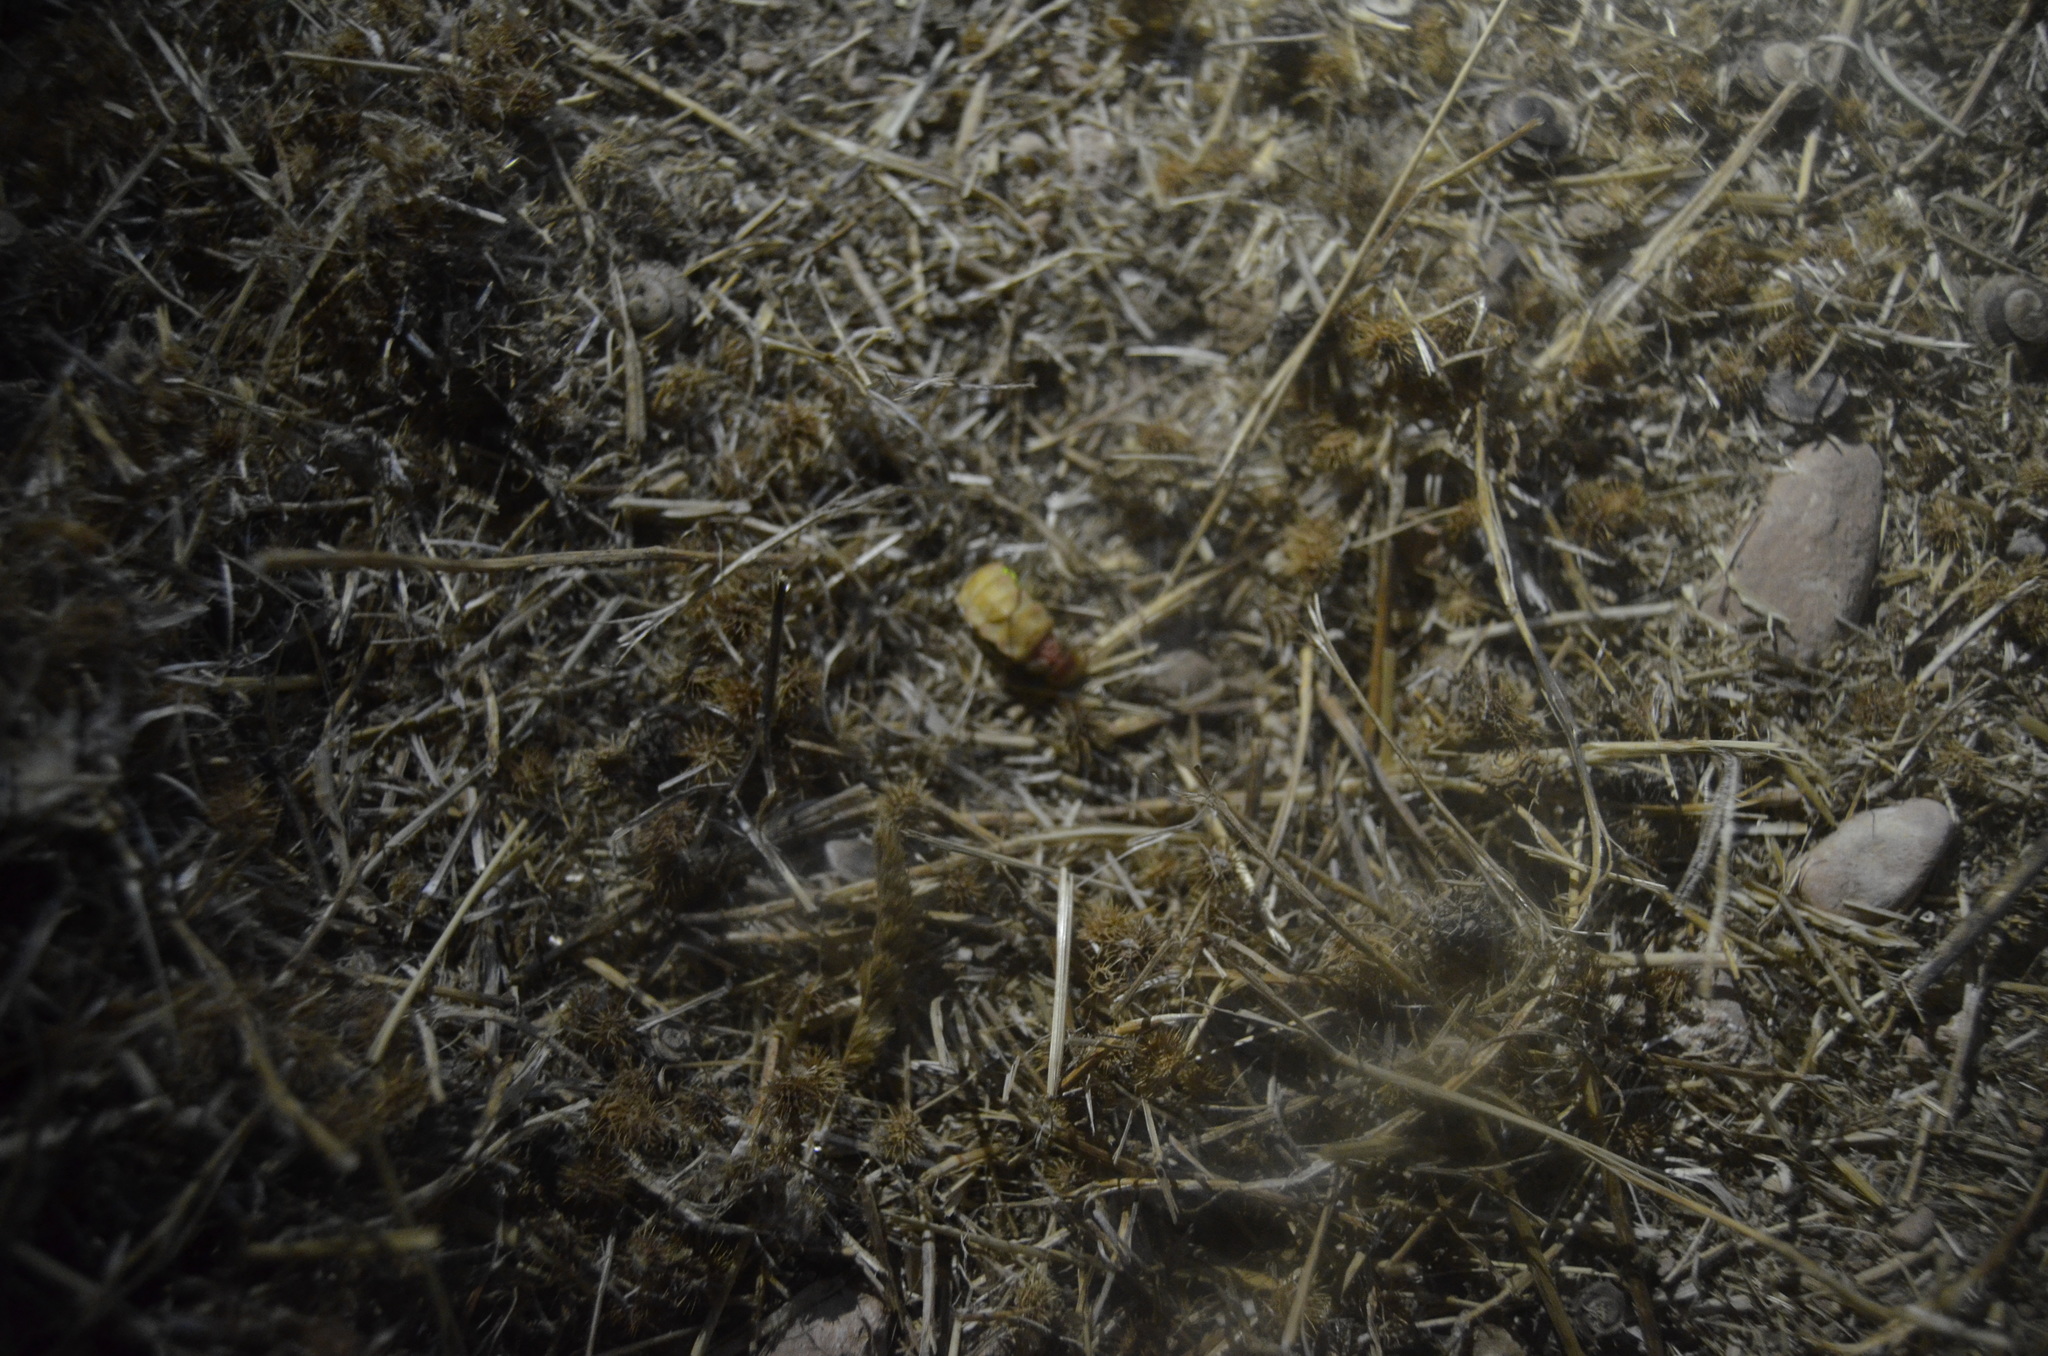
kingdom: Animalia
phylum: Arthropoda
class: Insecta
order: Coleoptera
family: Lampyridae
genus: Nyctophila
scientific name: Nyctophila reichii
